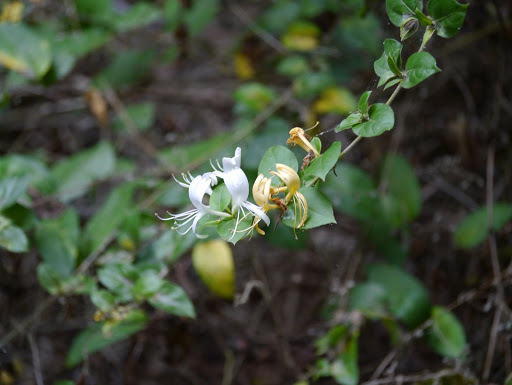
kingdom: Plantae
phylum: Tracheophyta
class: Magnoliopsida
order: Dipsacales
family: Caprifoliaceae
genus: Lonicera
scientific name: Lonicera japonica
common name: Japanese honeysuckle
